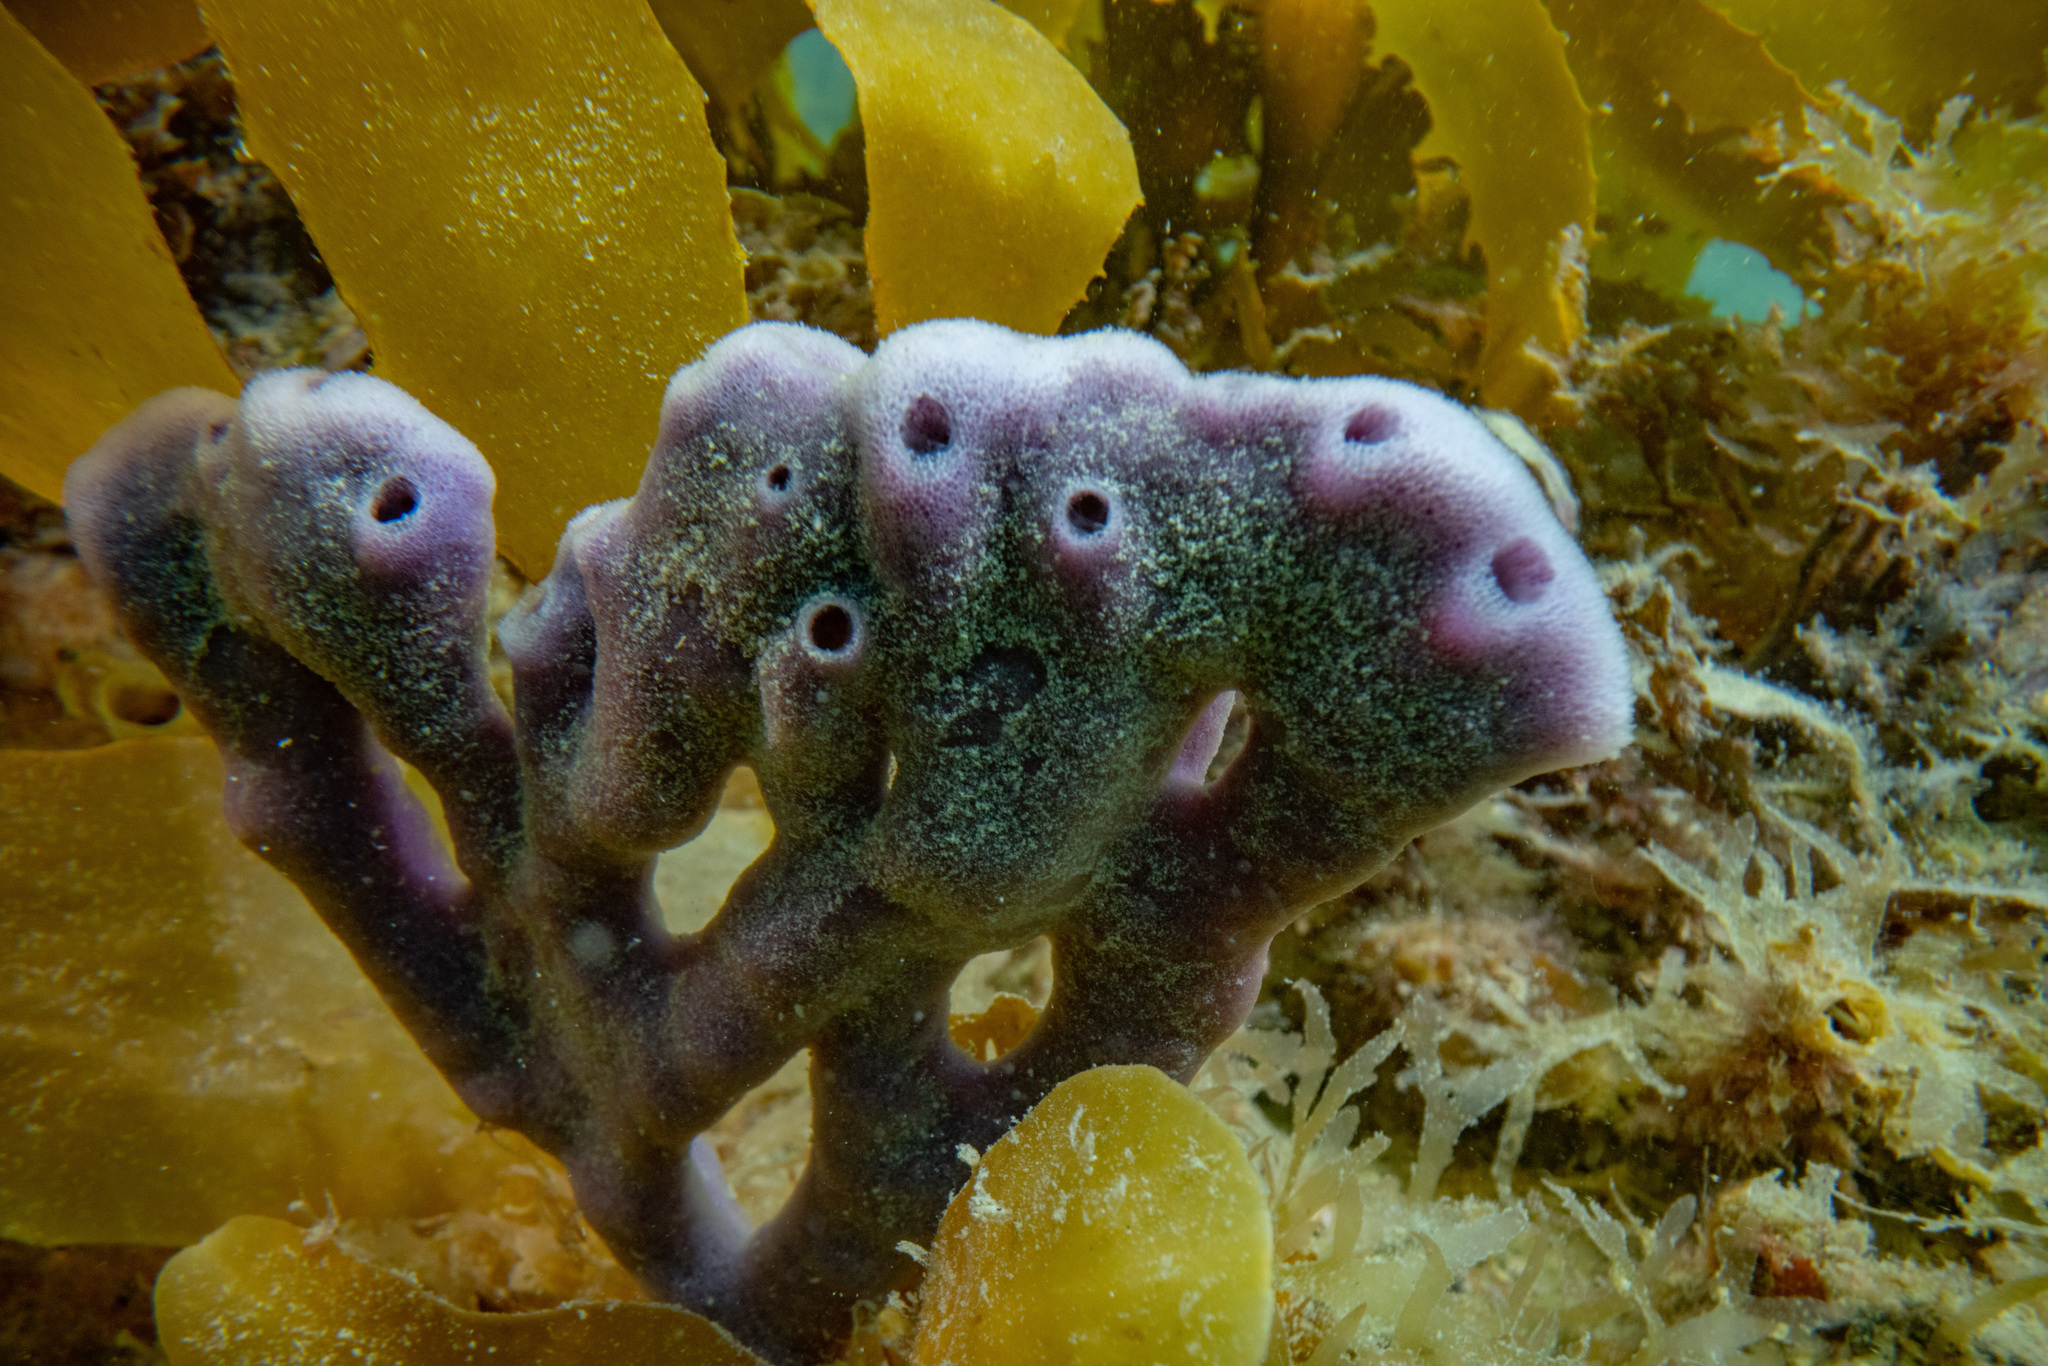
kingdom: Animalia
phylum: Porifera
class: Demospongiae
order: Haplosclerida
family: Callyspongiidae
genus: Dactylia
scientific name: Dactylia varia
